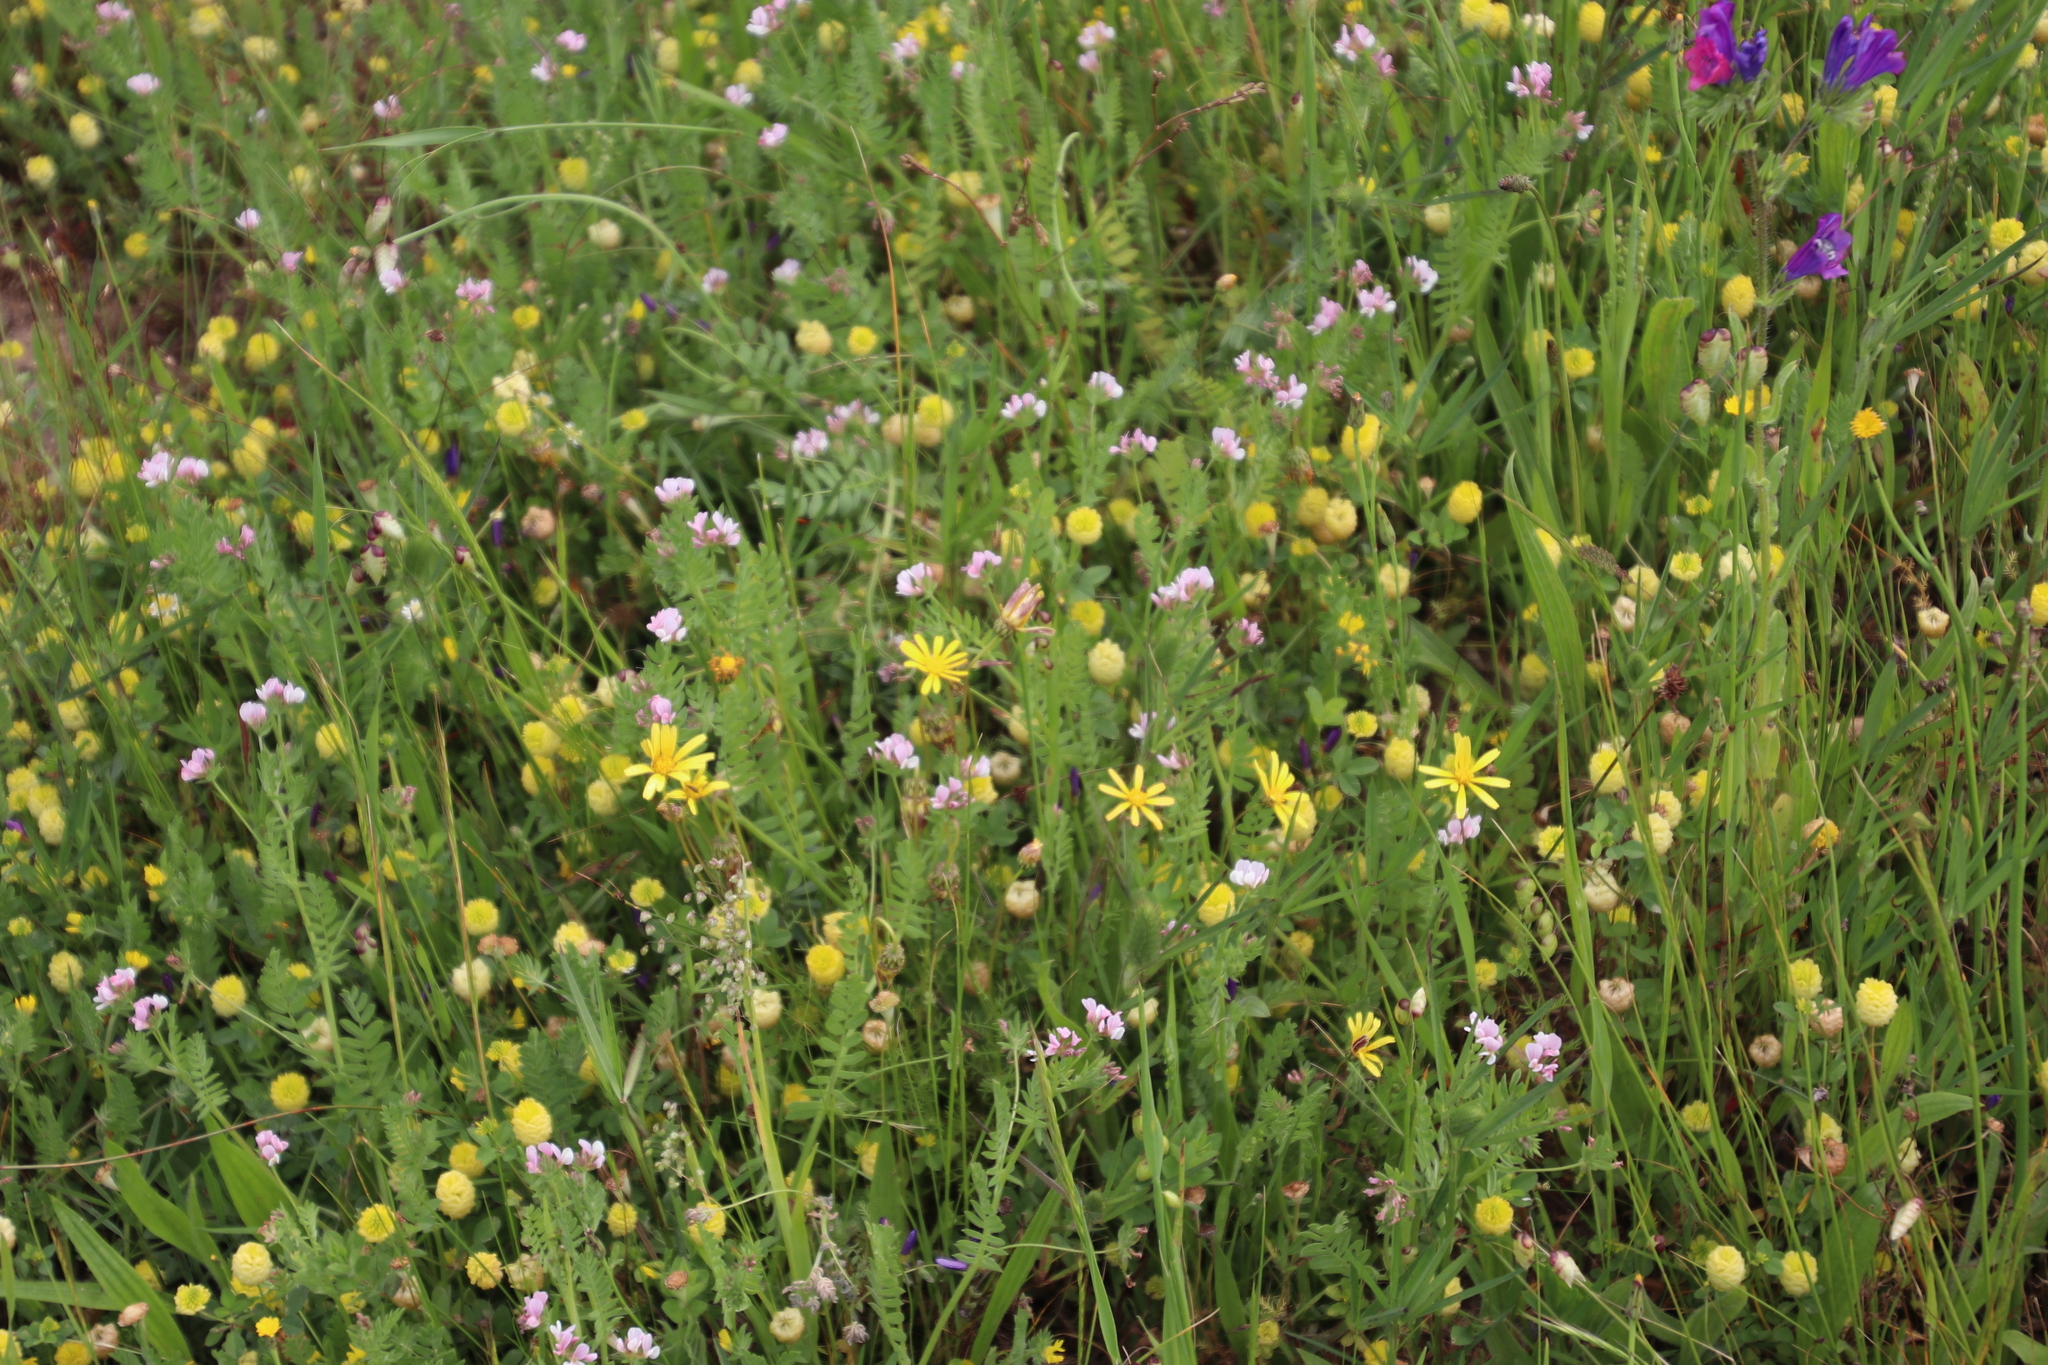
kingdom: Plantae
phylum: Tracheophyta
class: Magnoliopsida
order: Fabales
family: Fabaceae
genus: Ornithopus
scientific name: Ornithopus sativus
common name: Serradella
